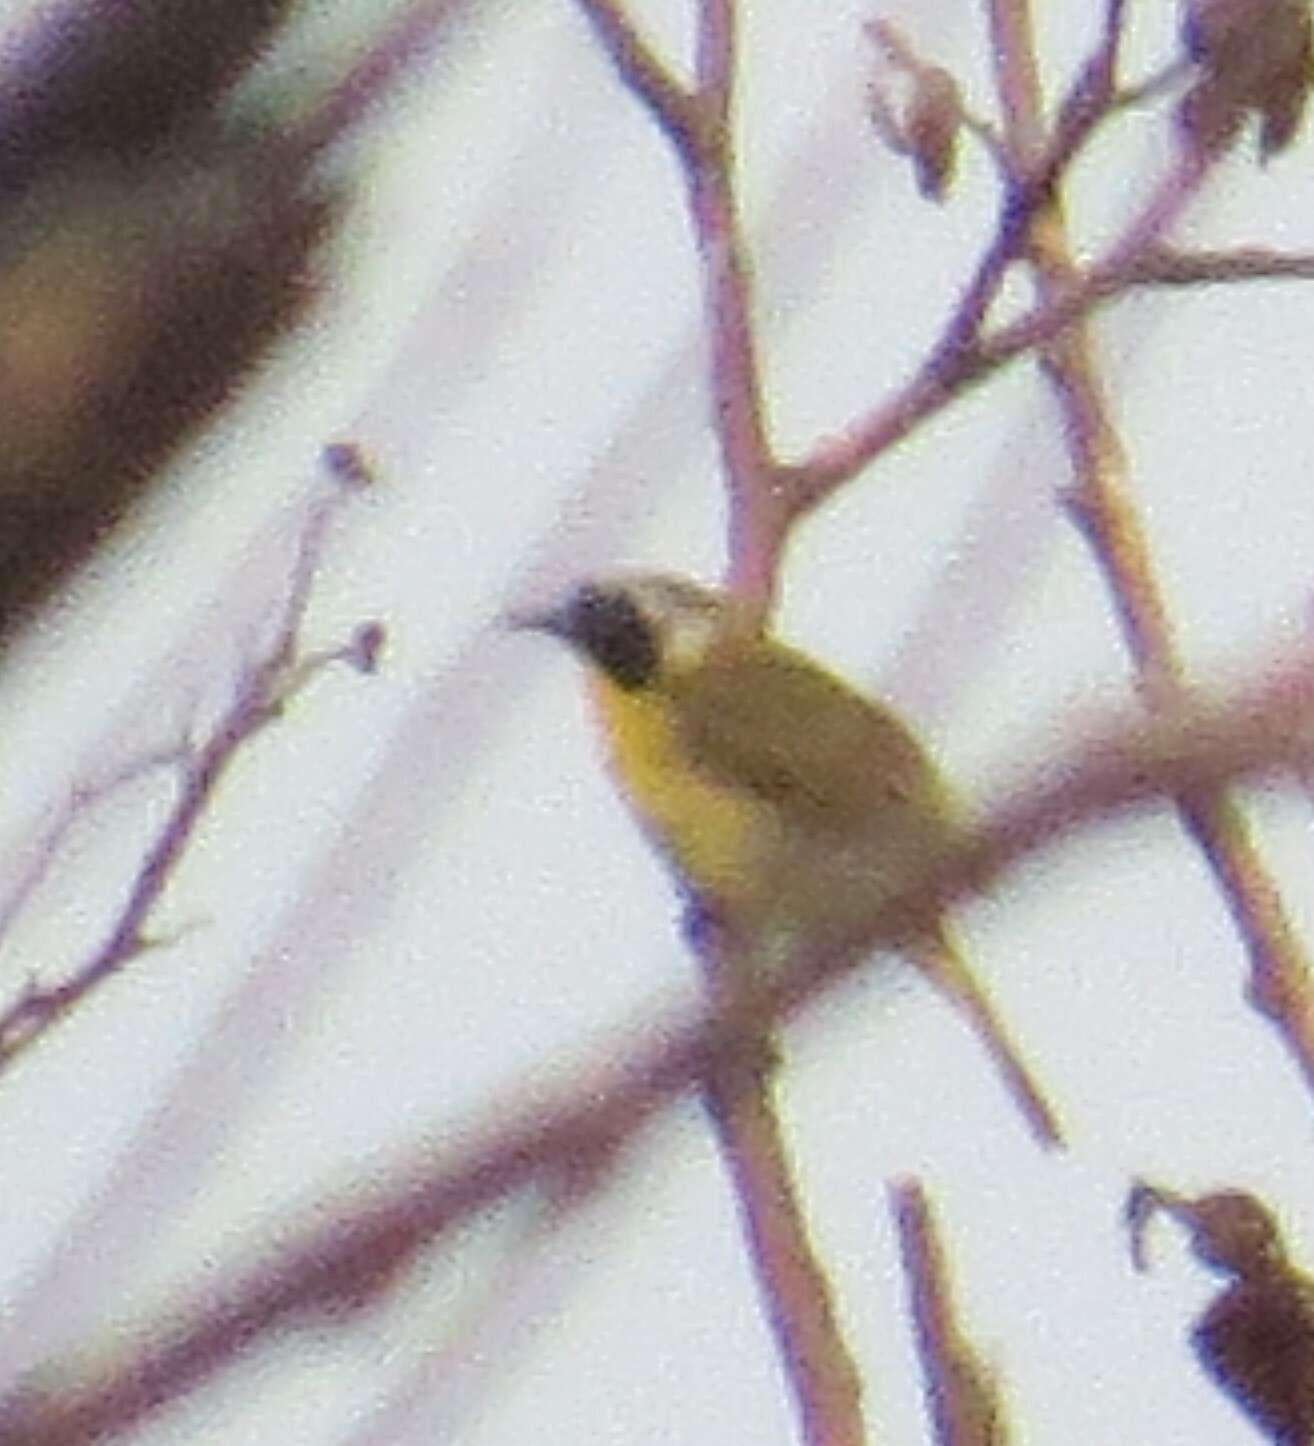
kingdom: Animalia
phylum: Chordata
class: Aves
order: Passeriformes
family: Parulidae
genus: Geothlypis
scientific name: Geothlypis trichas
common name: Common yellowthroat
